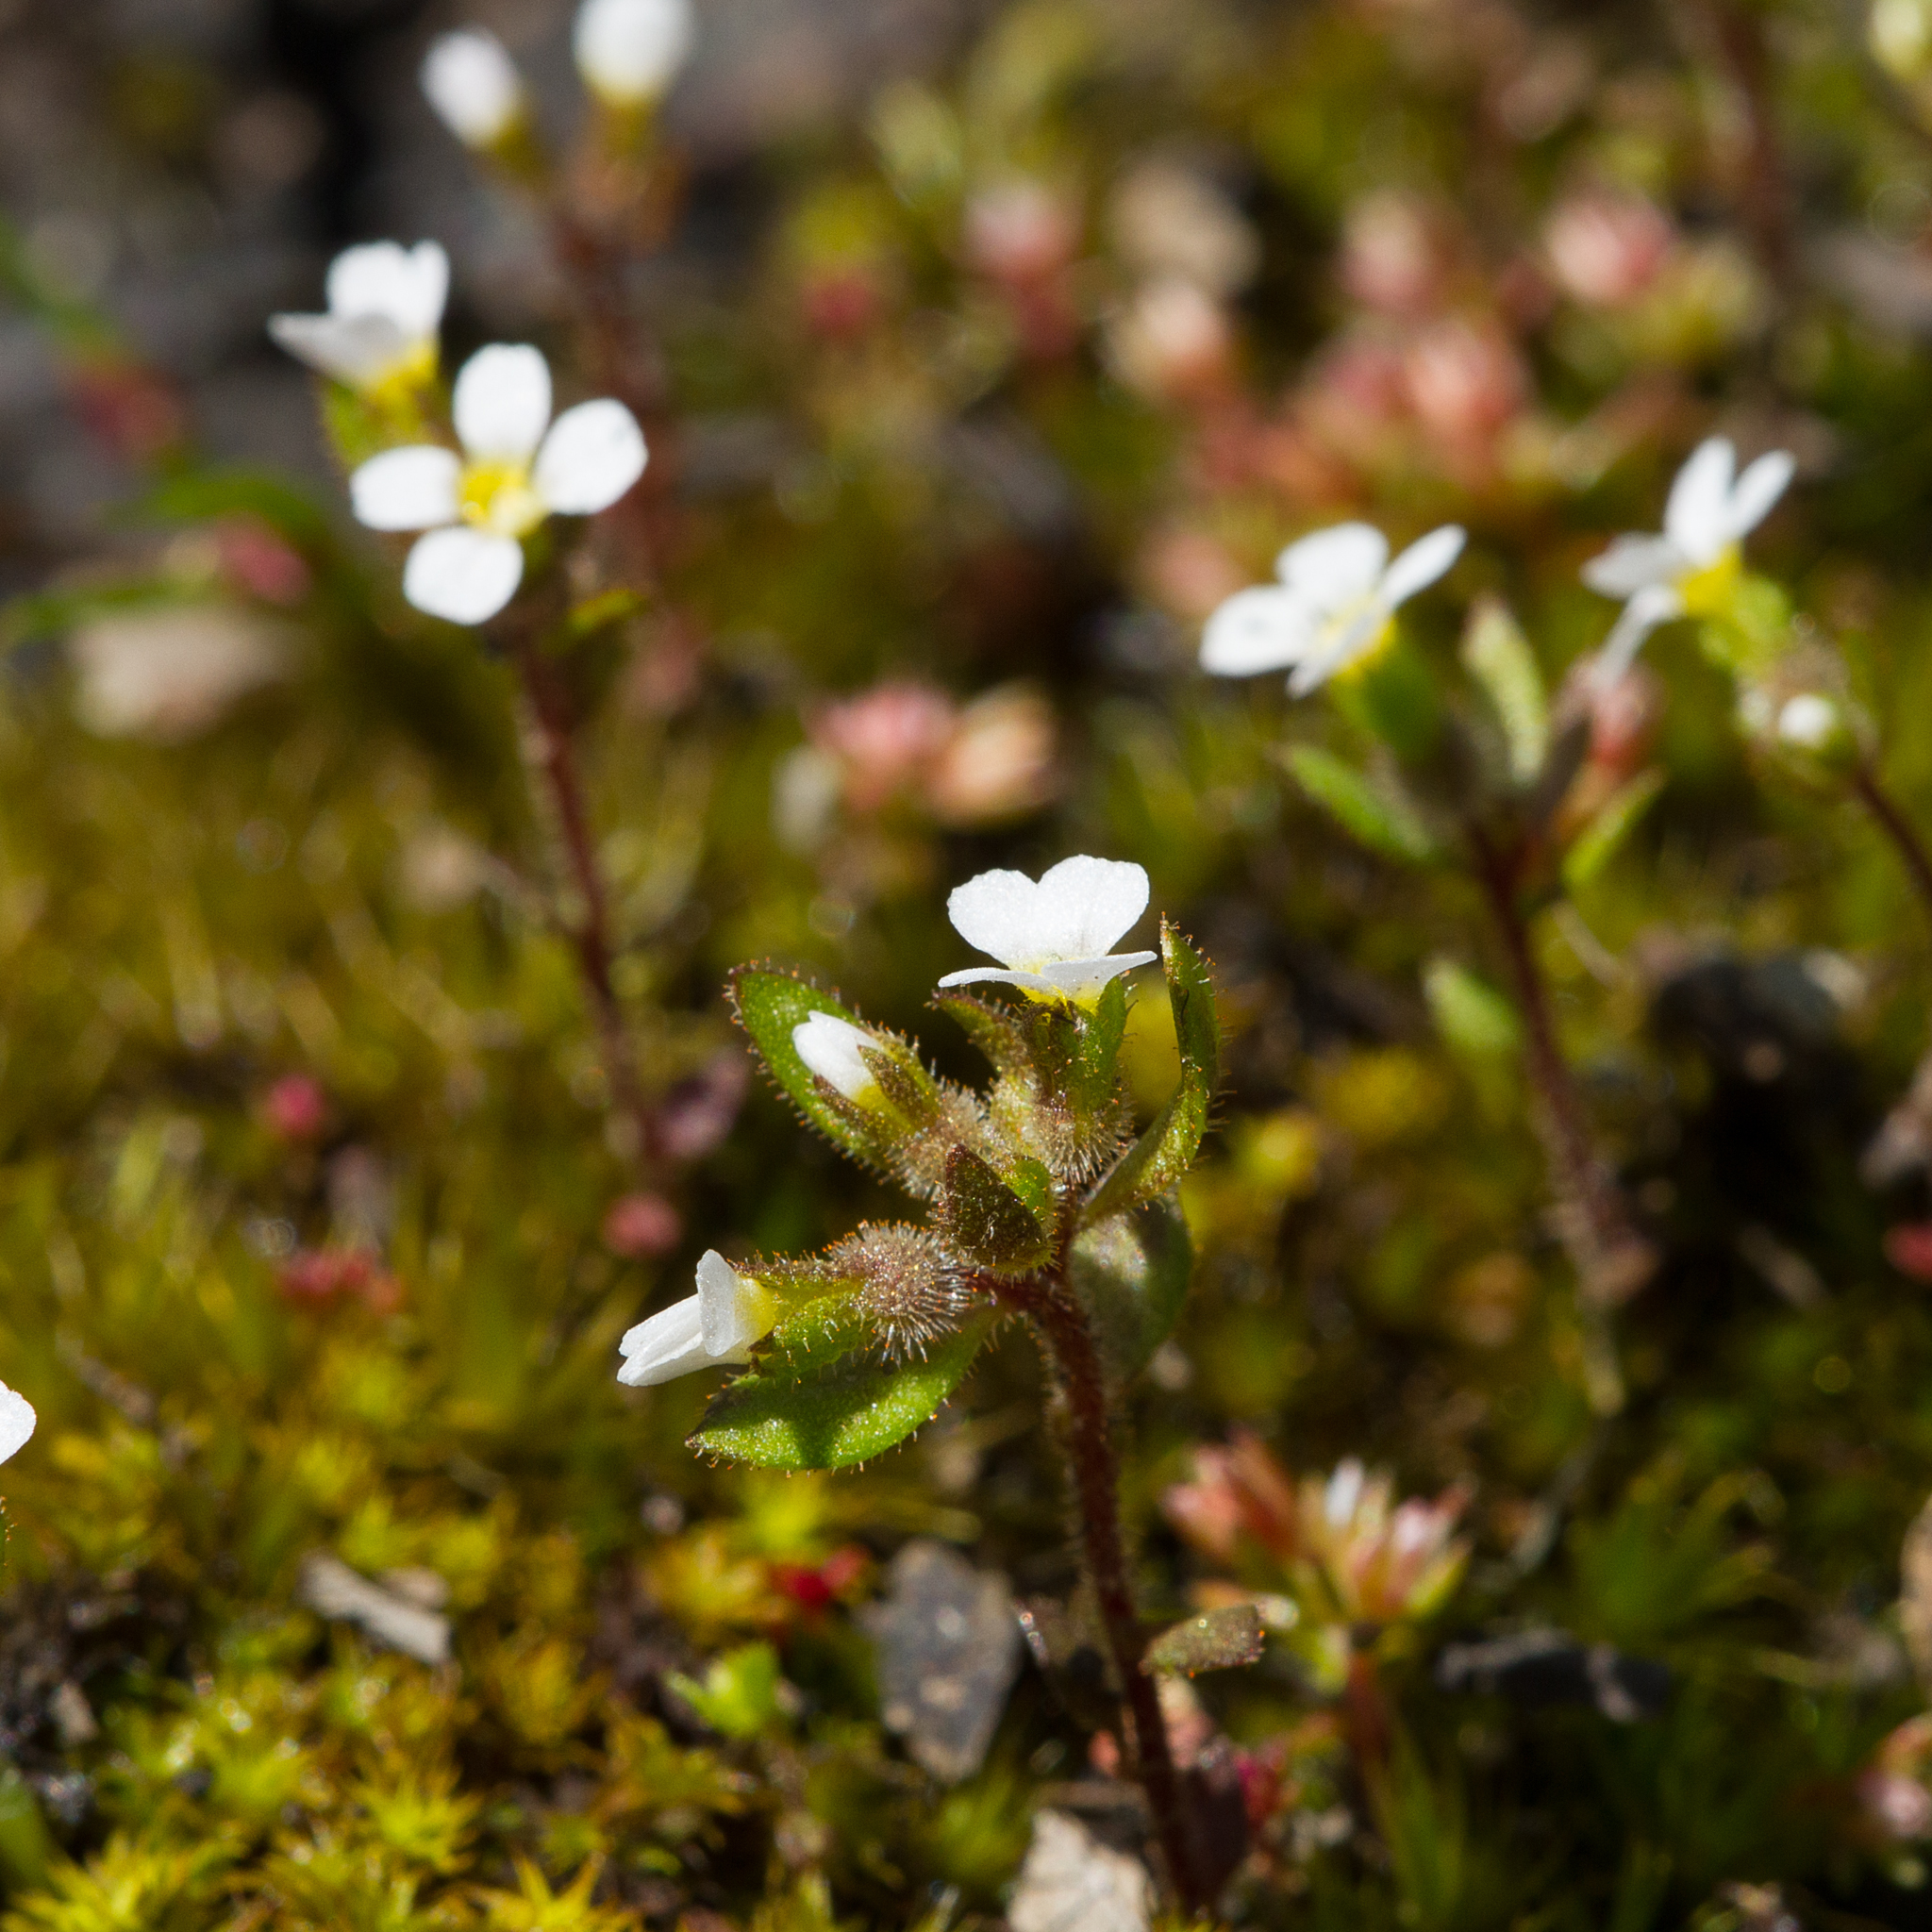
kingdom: Plantae
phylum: Tracheophyta
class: Magnoliopsida
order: Asterales
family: Stylidiaceae
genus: Levenhookia
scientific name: Levenhookia dubia
